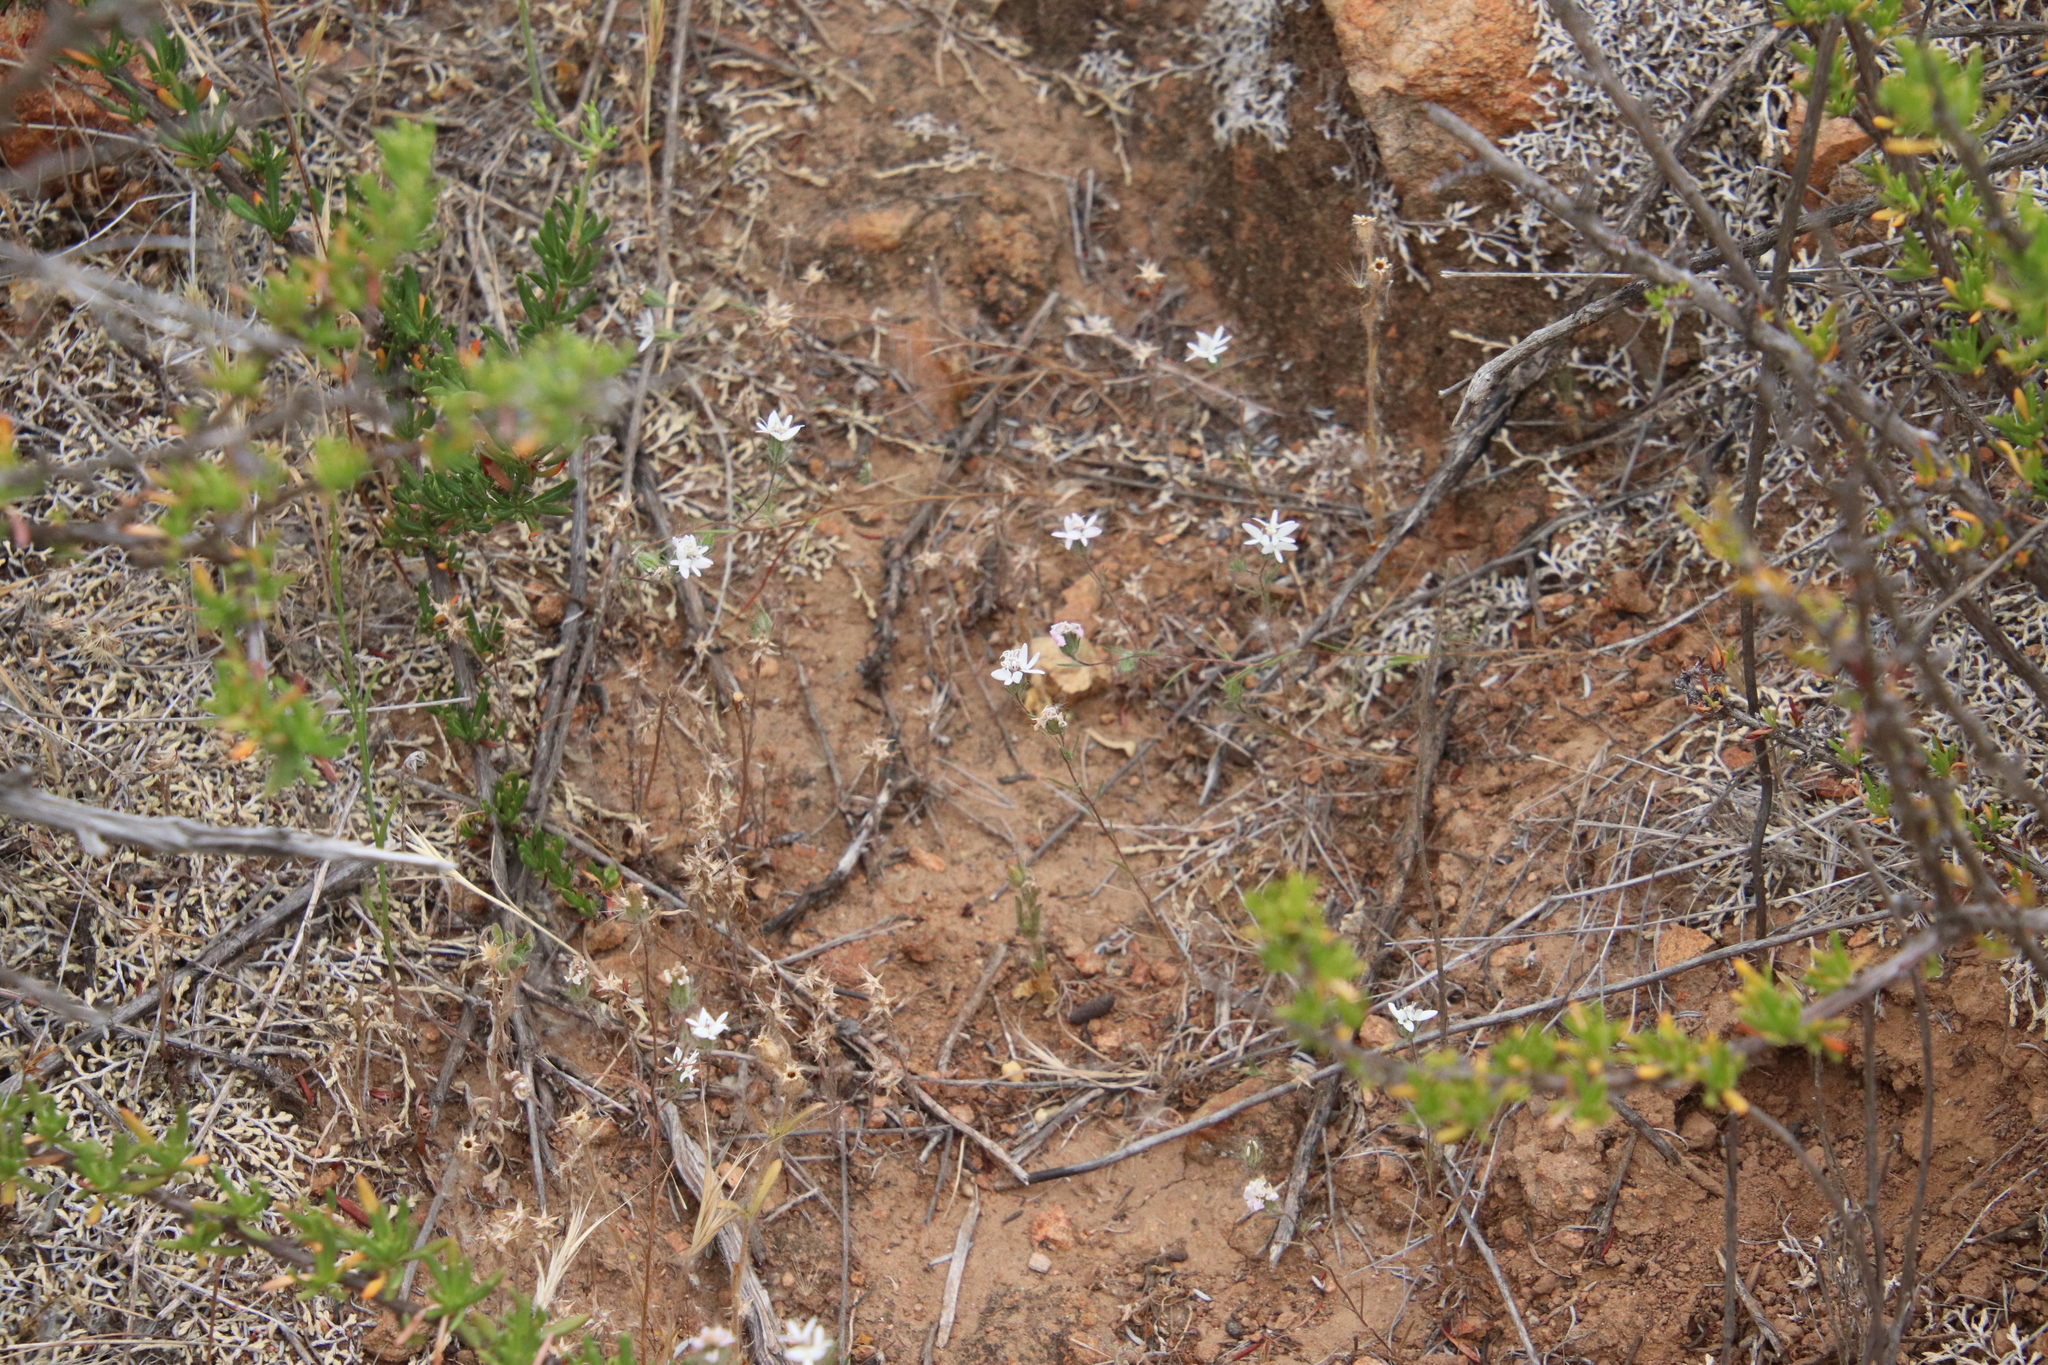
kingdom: Plantae
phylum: Tracheophyta
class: Magnoliopsida
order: Asterales
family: Asteraceae
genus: Osmadenia
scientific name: Osmadenia tenella
